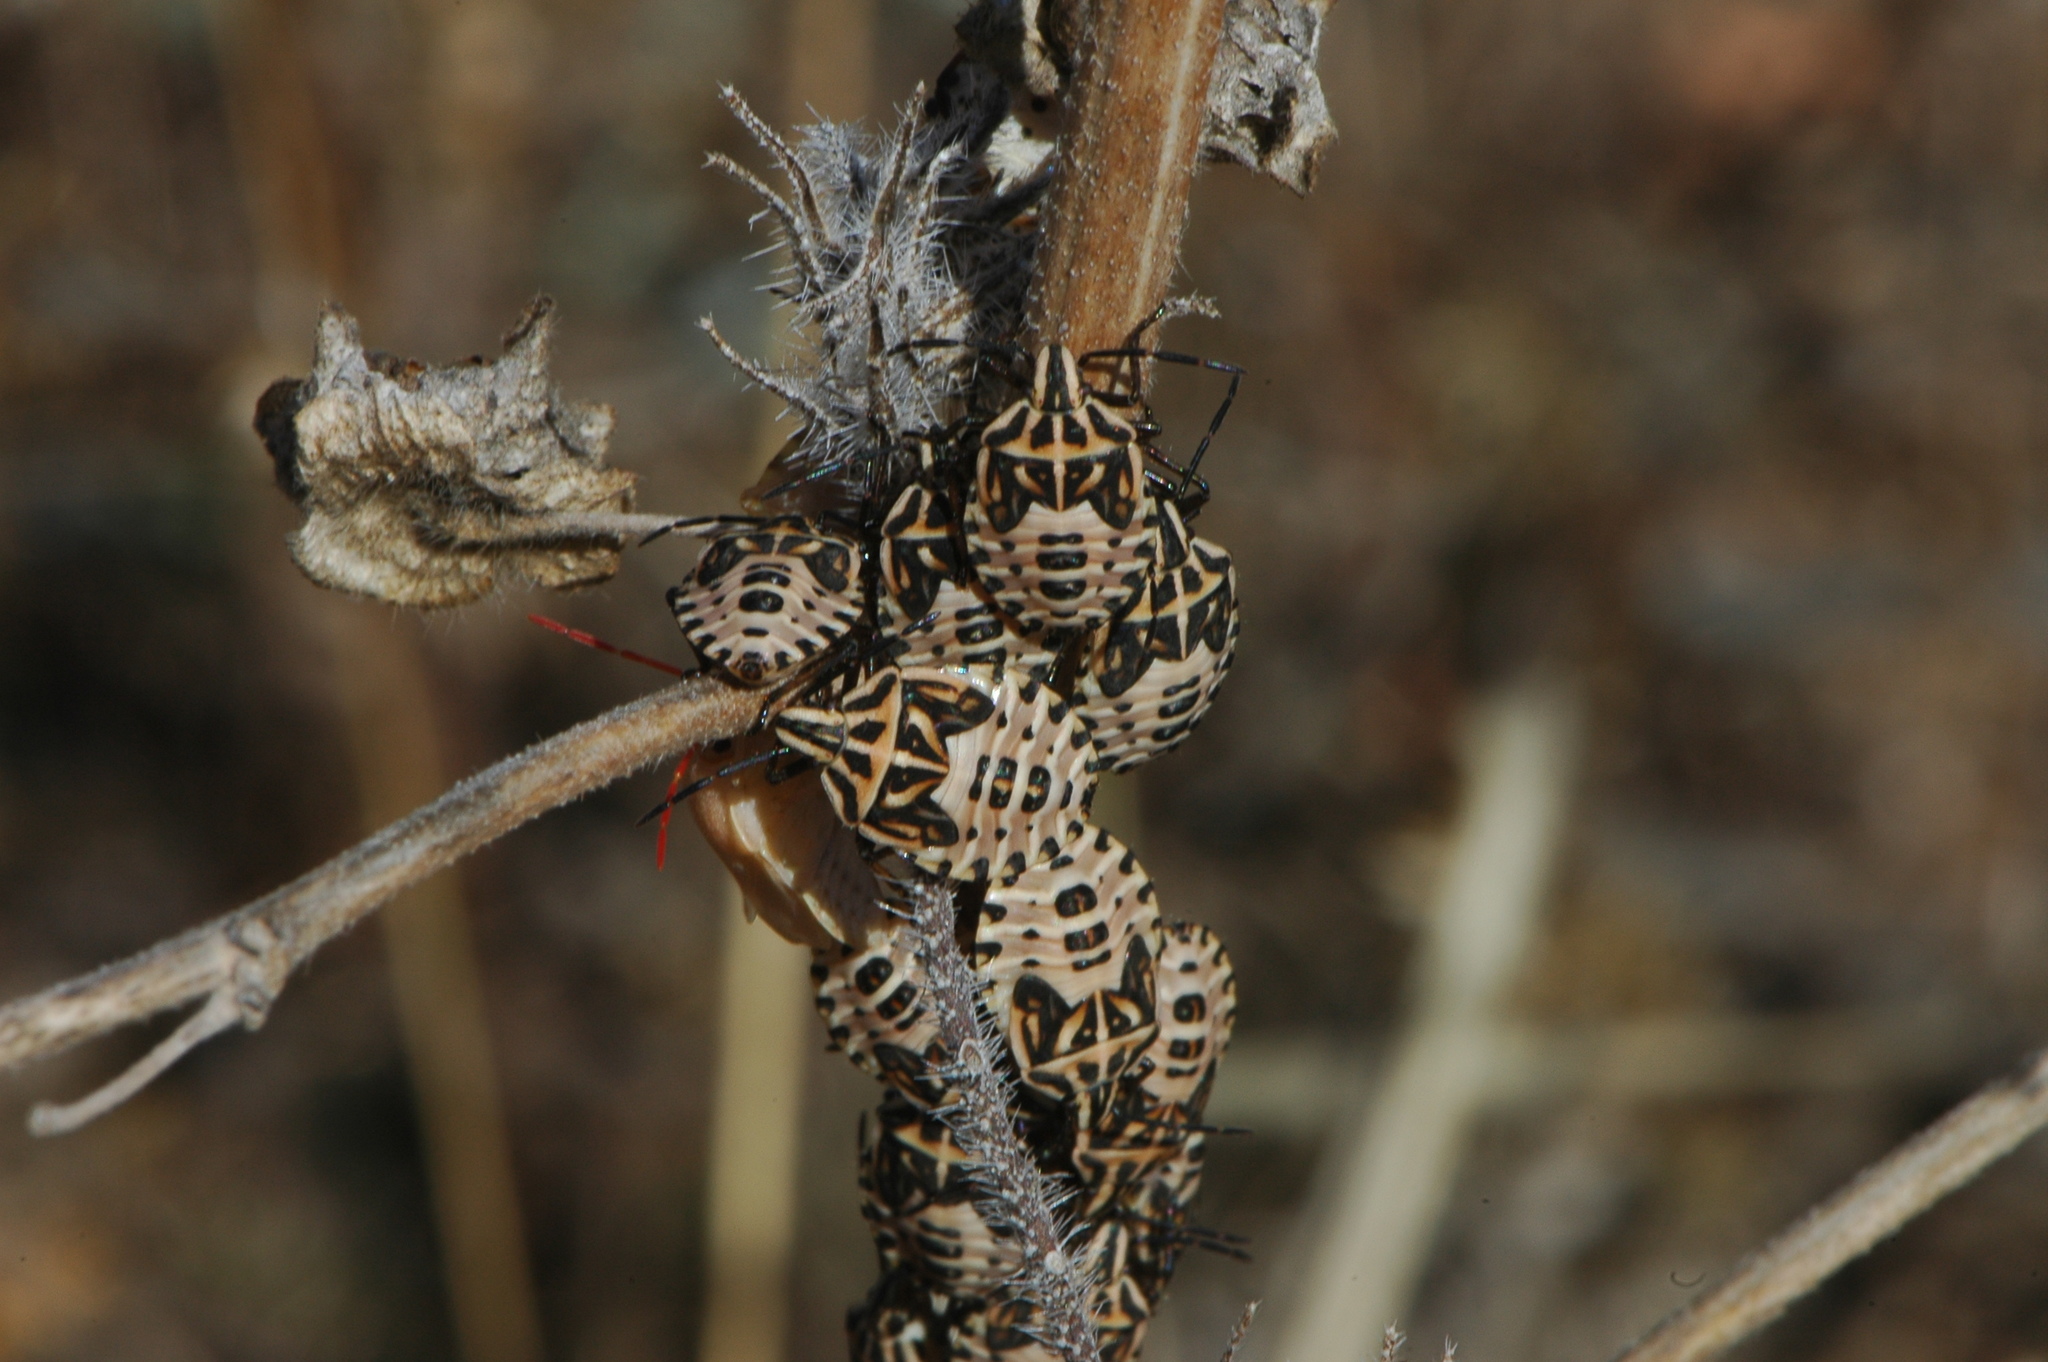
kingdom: Animalia
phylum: Arthropoda
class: Insecta
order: Hemiptera
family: Miridae
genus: Orthops
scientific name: Orthops kalmii
